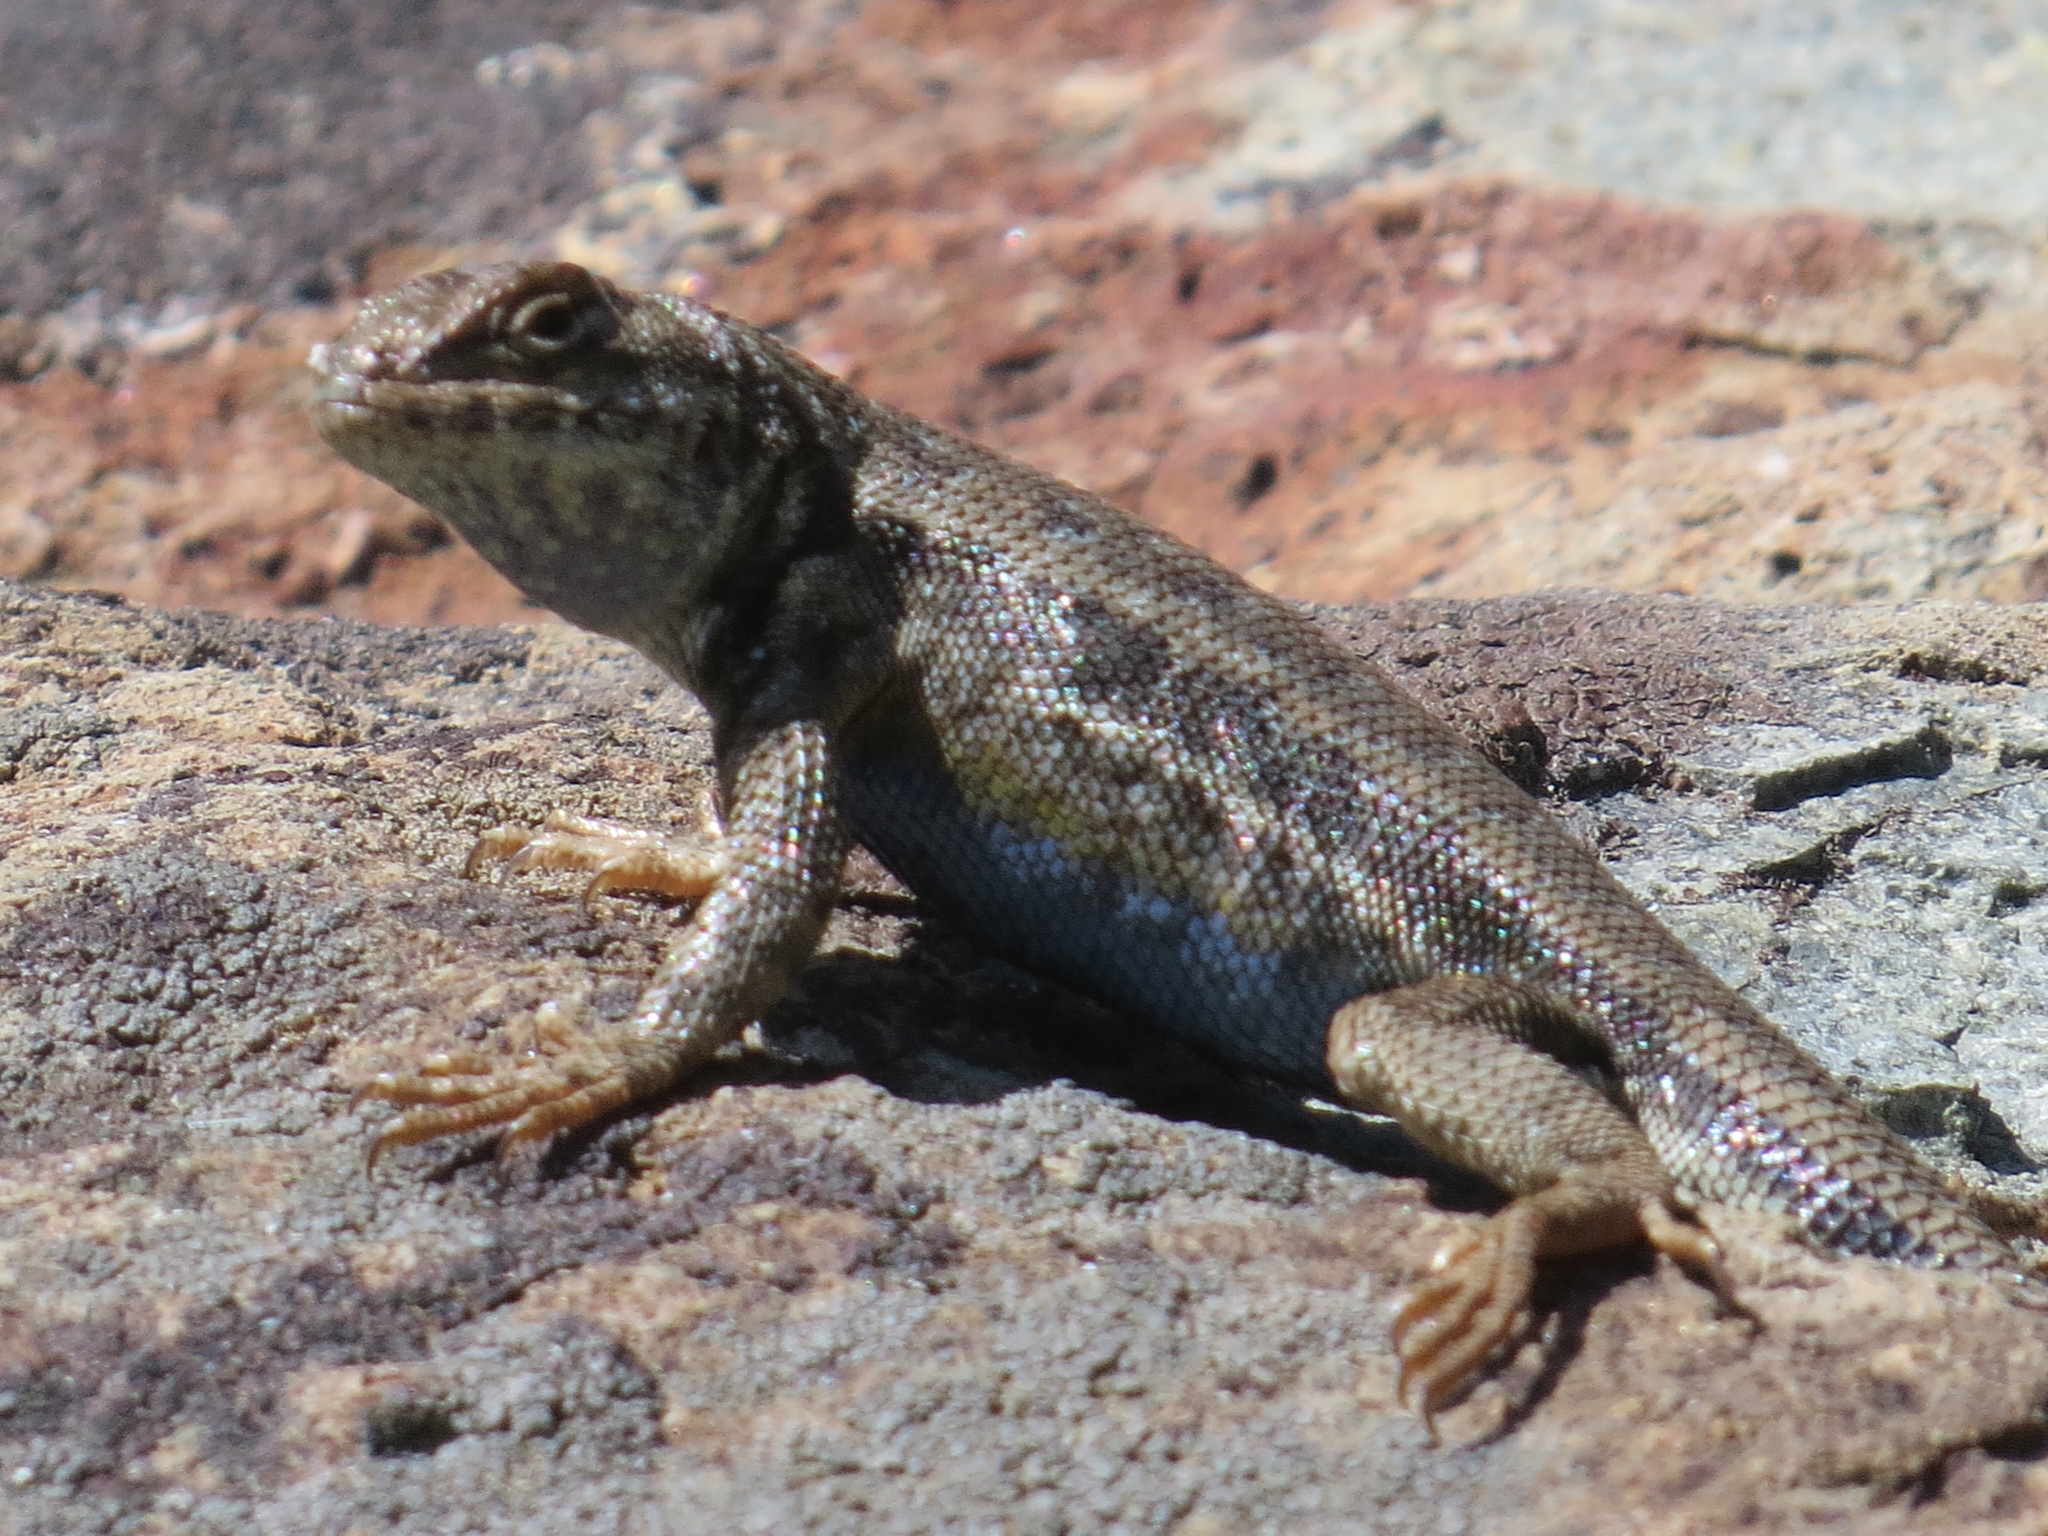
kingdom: Animalia
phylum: Chordata
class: Squamata
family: Phrynosomatidae
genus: Sceloporus
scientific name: Sceloporus graciosus
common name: Sagebrush lizard
